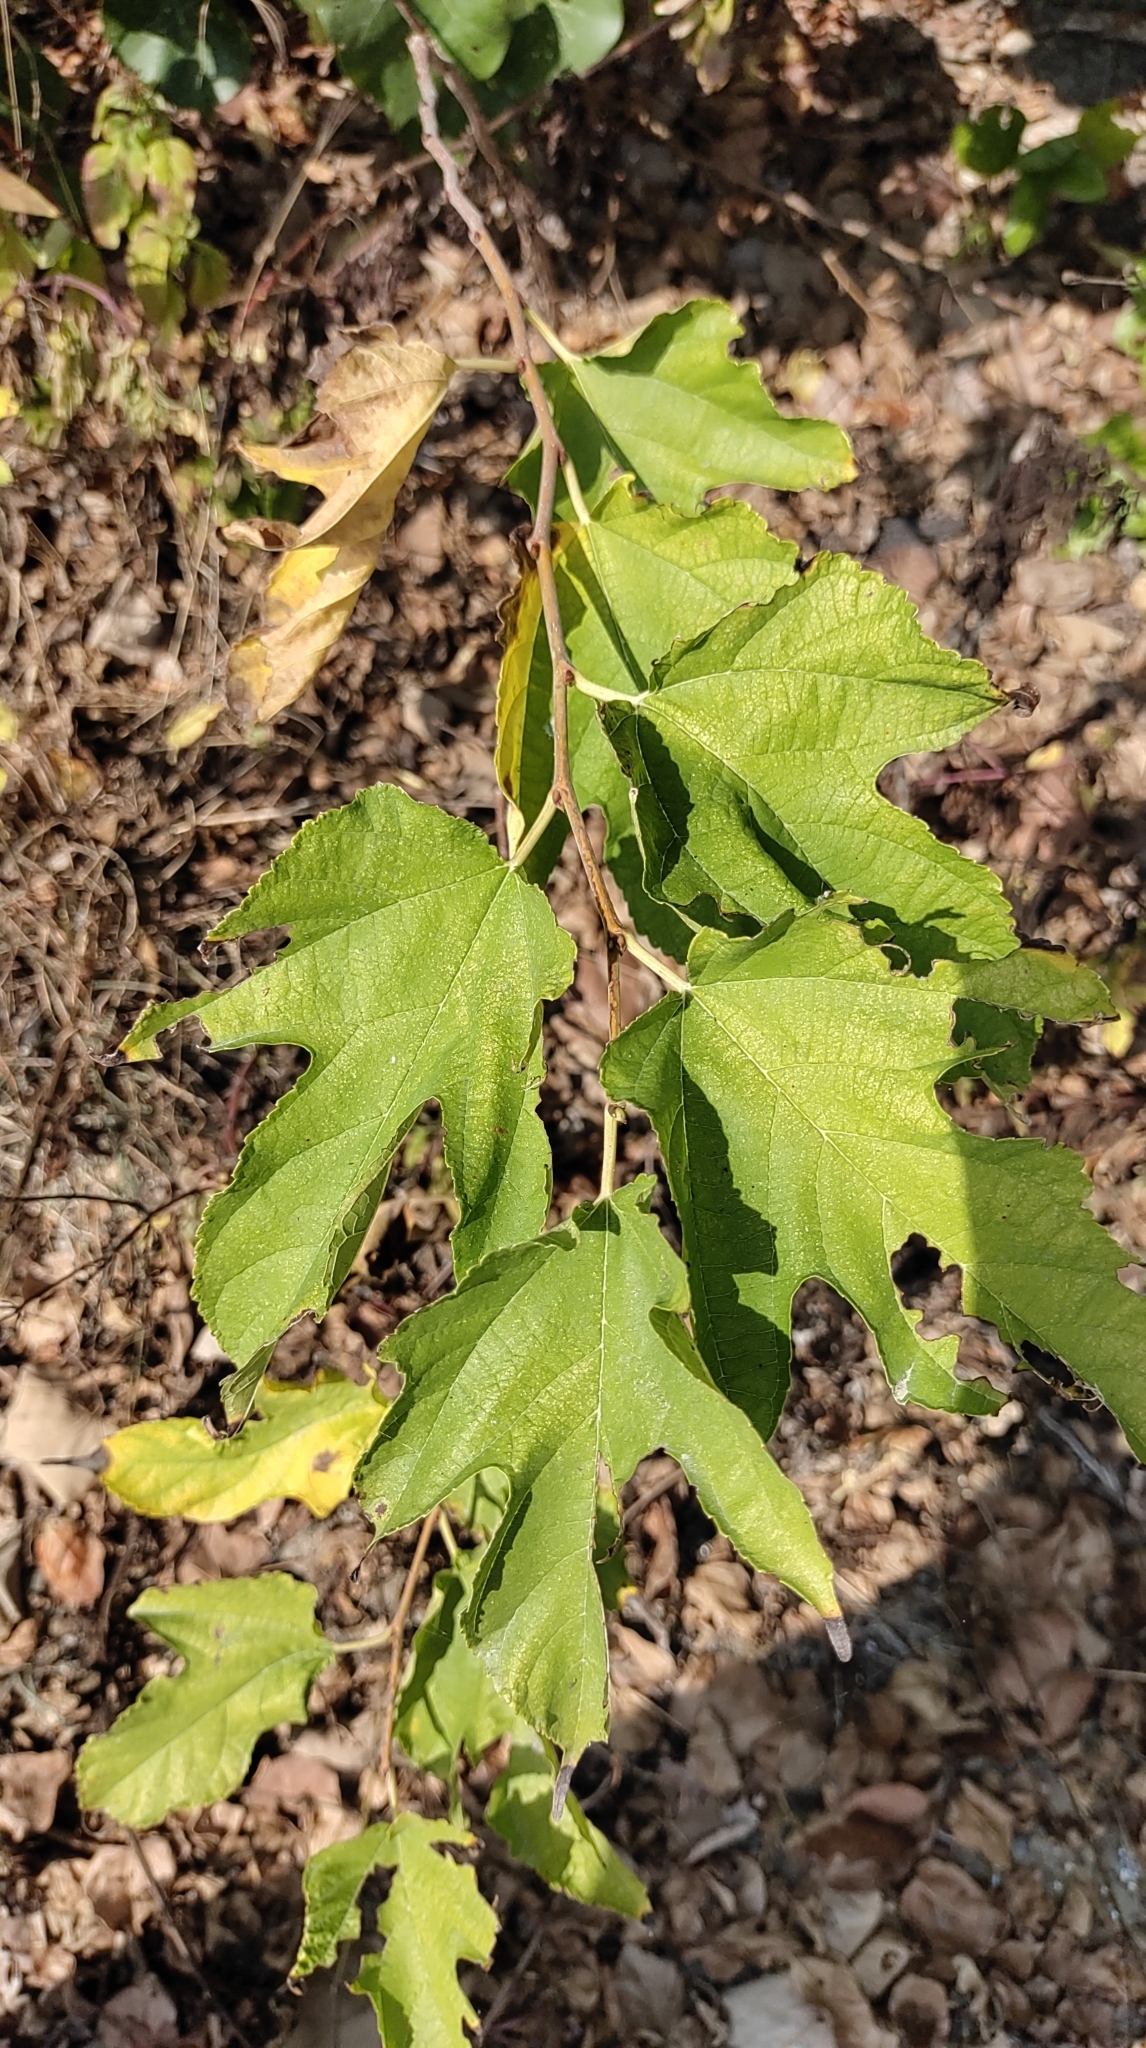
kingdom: Plantae
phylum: Tracheophyta
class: Magnoliopsida
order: Rosales
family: Moraceae
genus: Broussonetia
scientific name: Broussonetia papyrifera
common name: Paper mulberry
